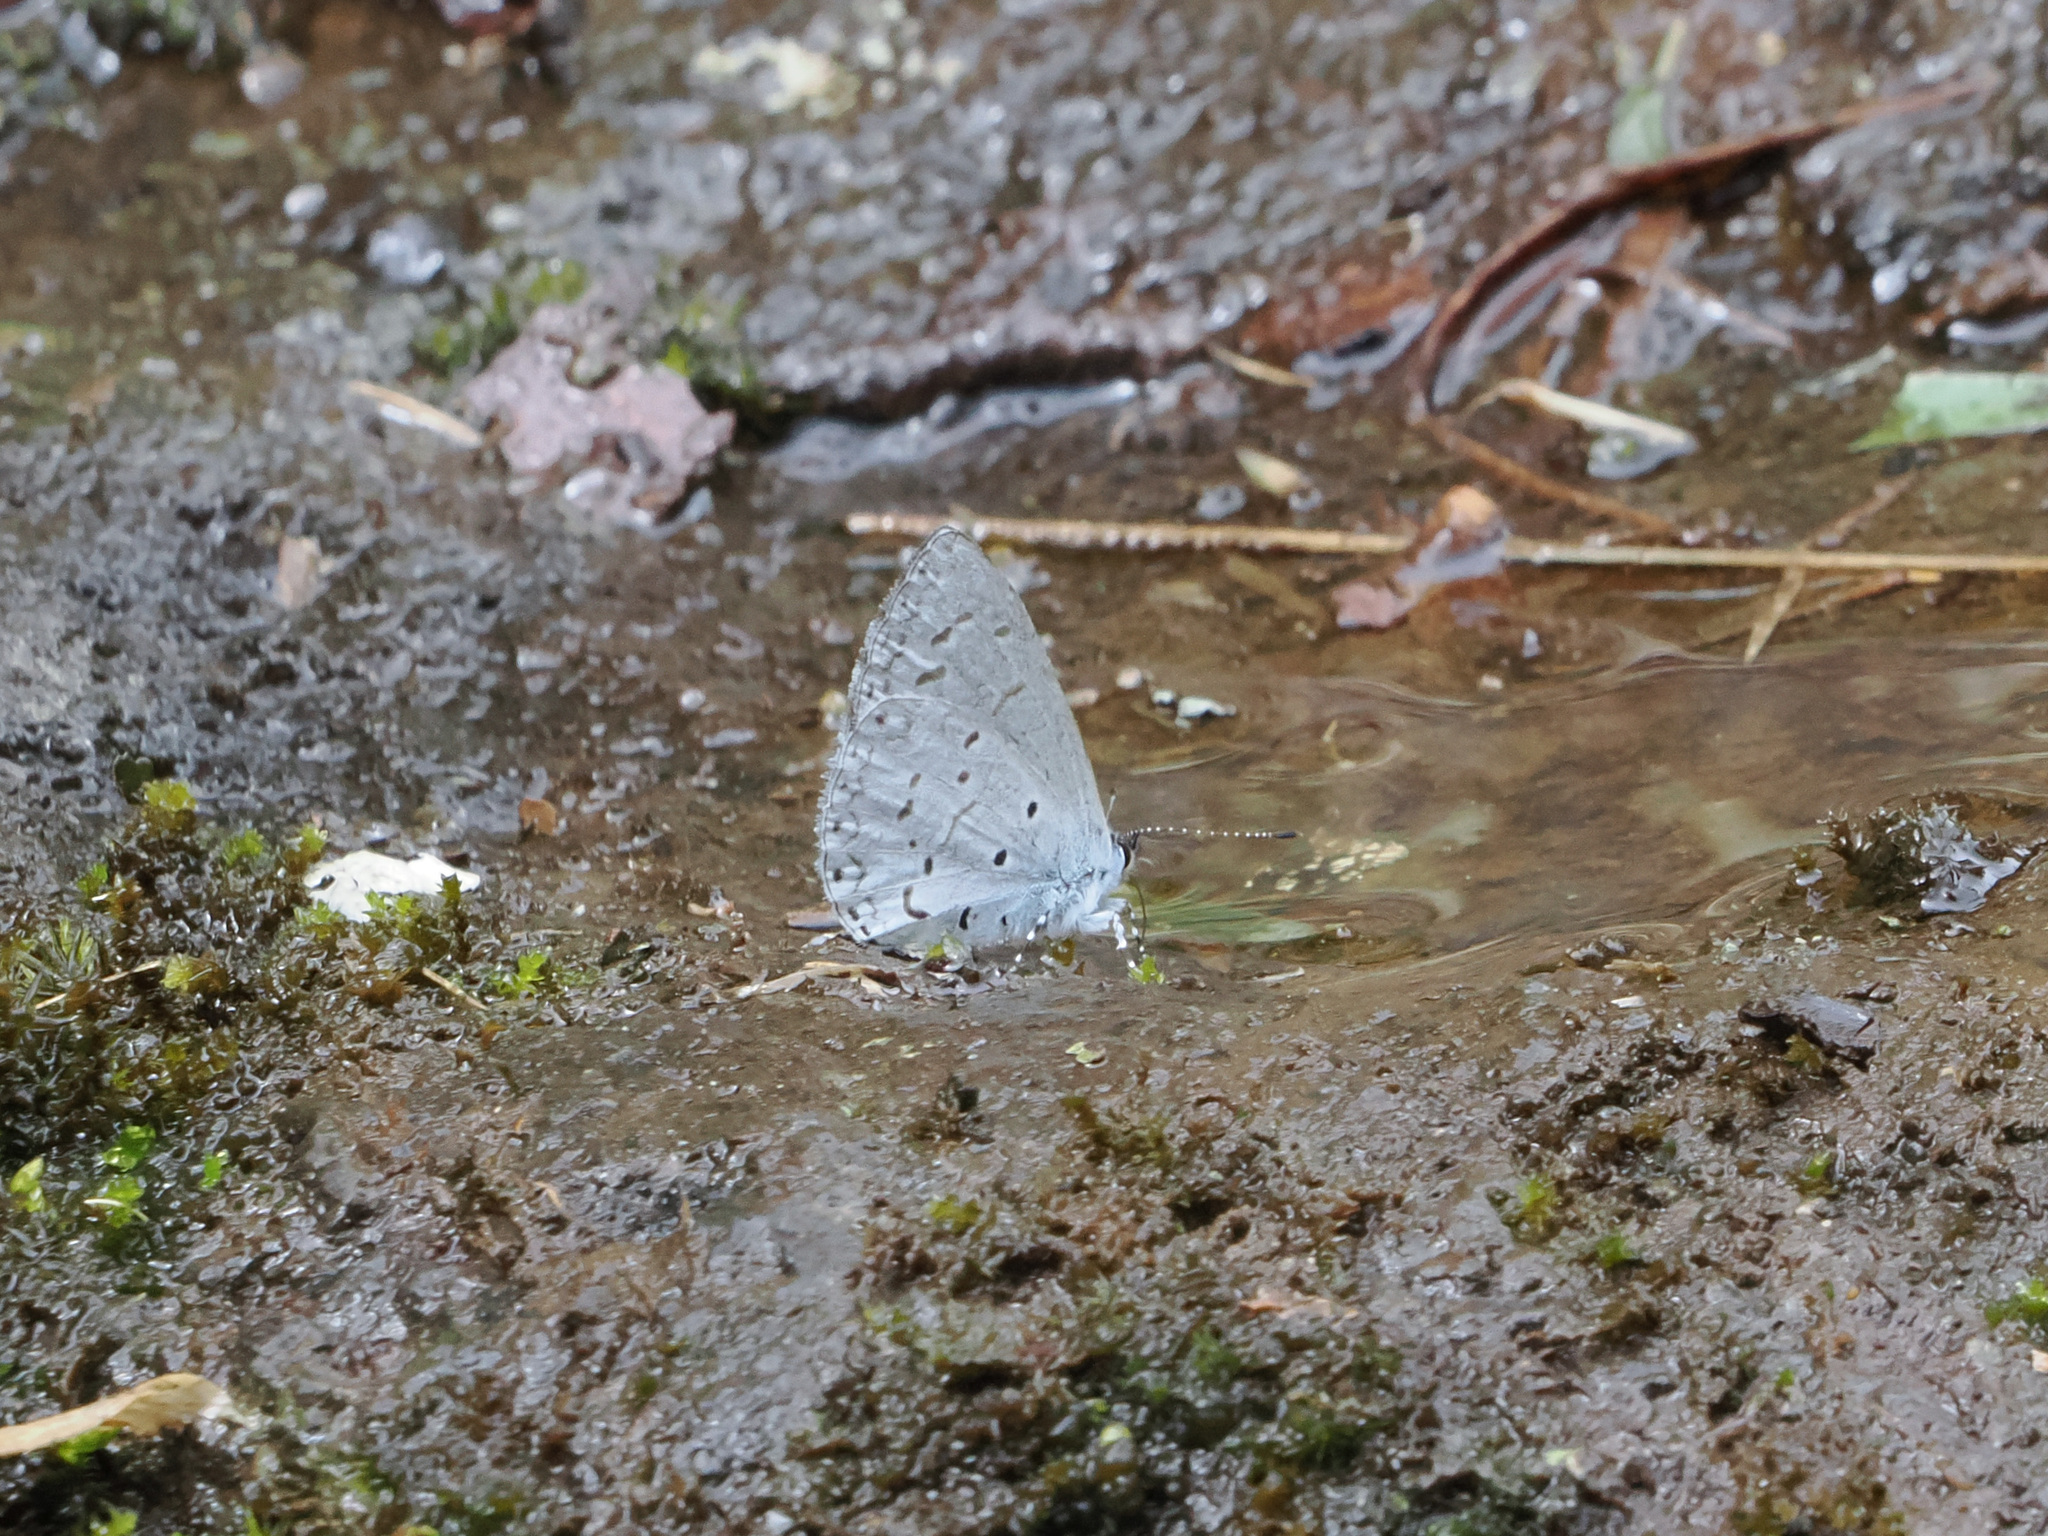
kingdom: Animalia
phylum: Arthropoda
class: Insecta
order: Lepidoptera
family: Lycaenidae
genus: Udara
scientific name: Udara dilectus
